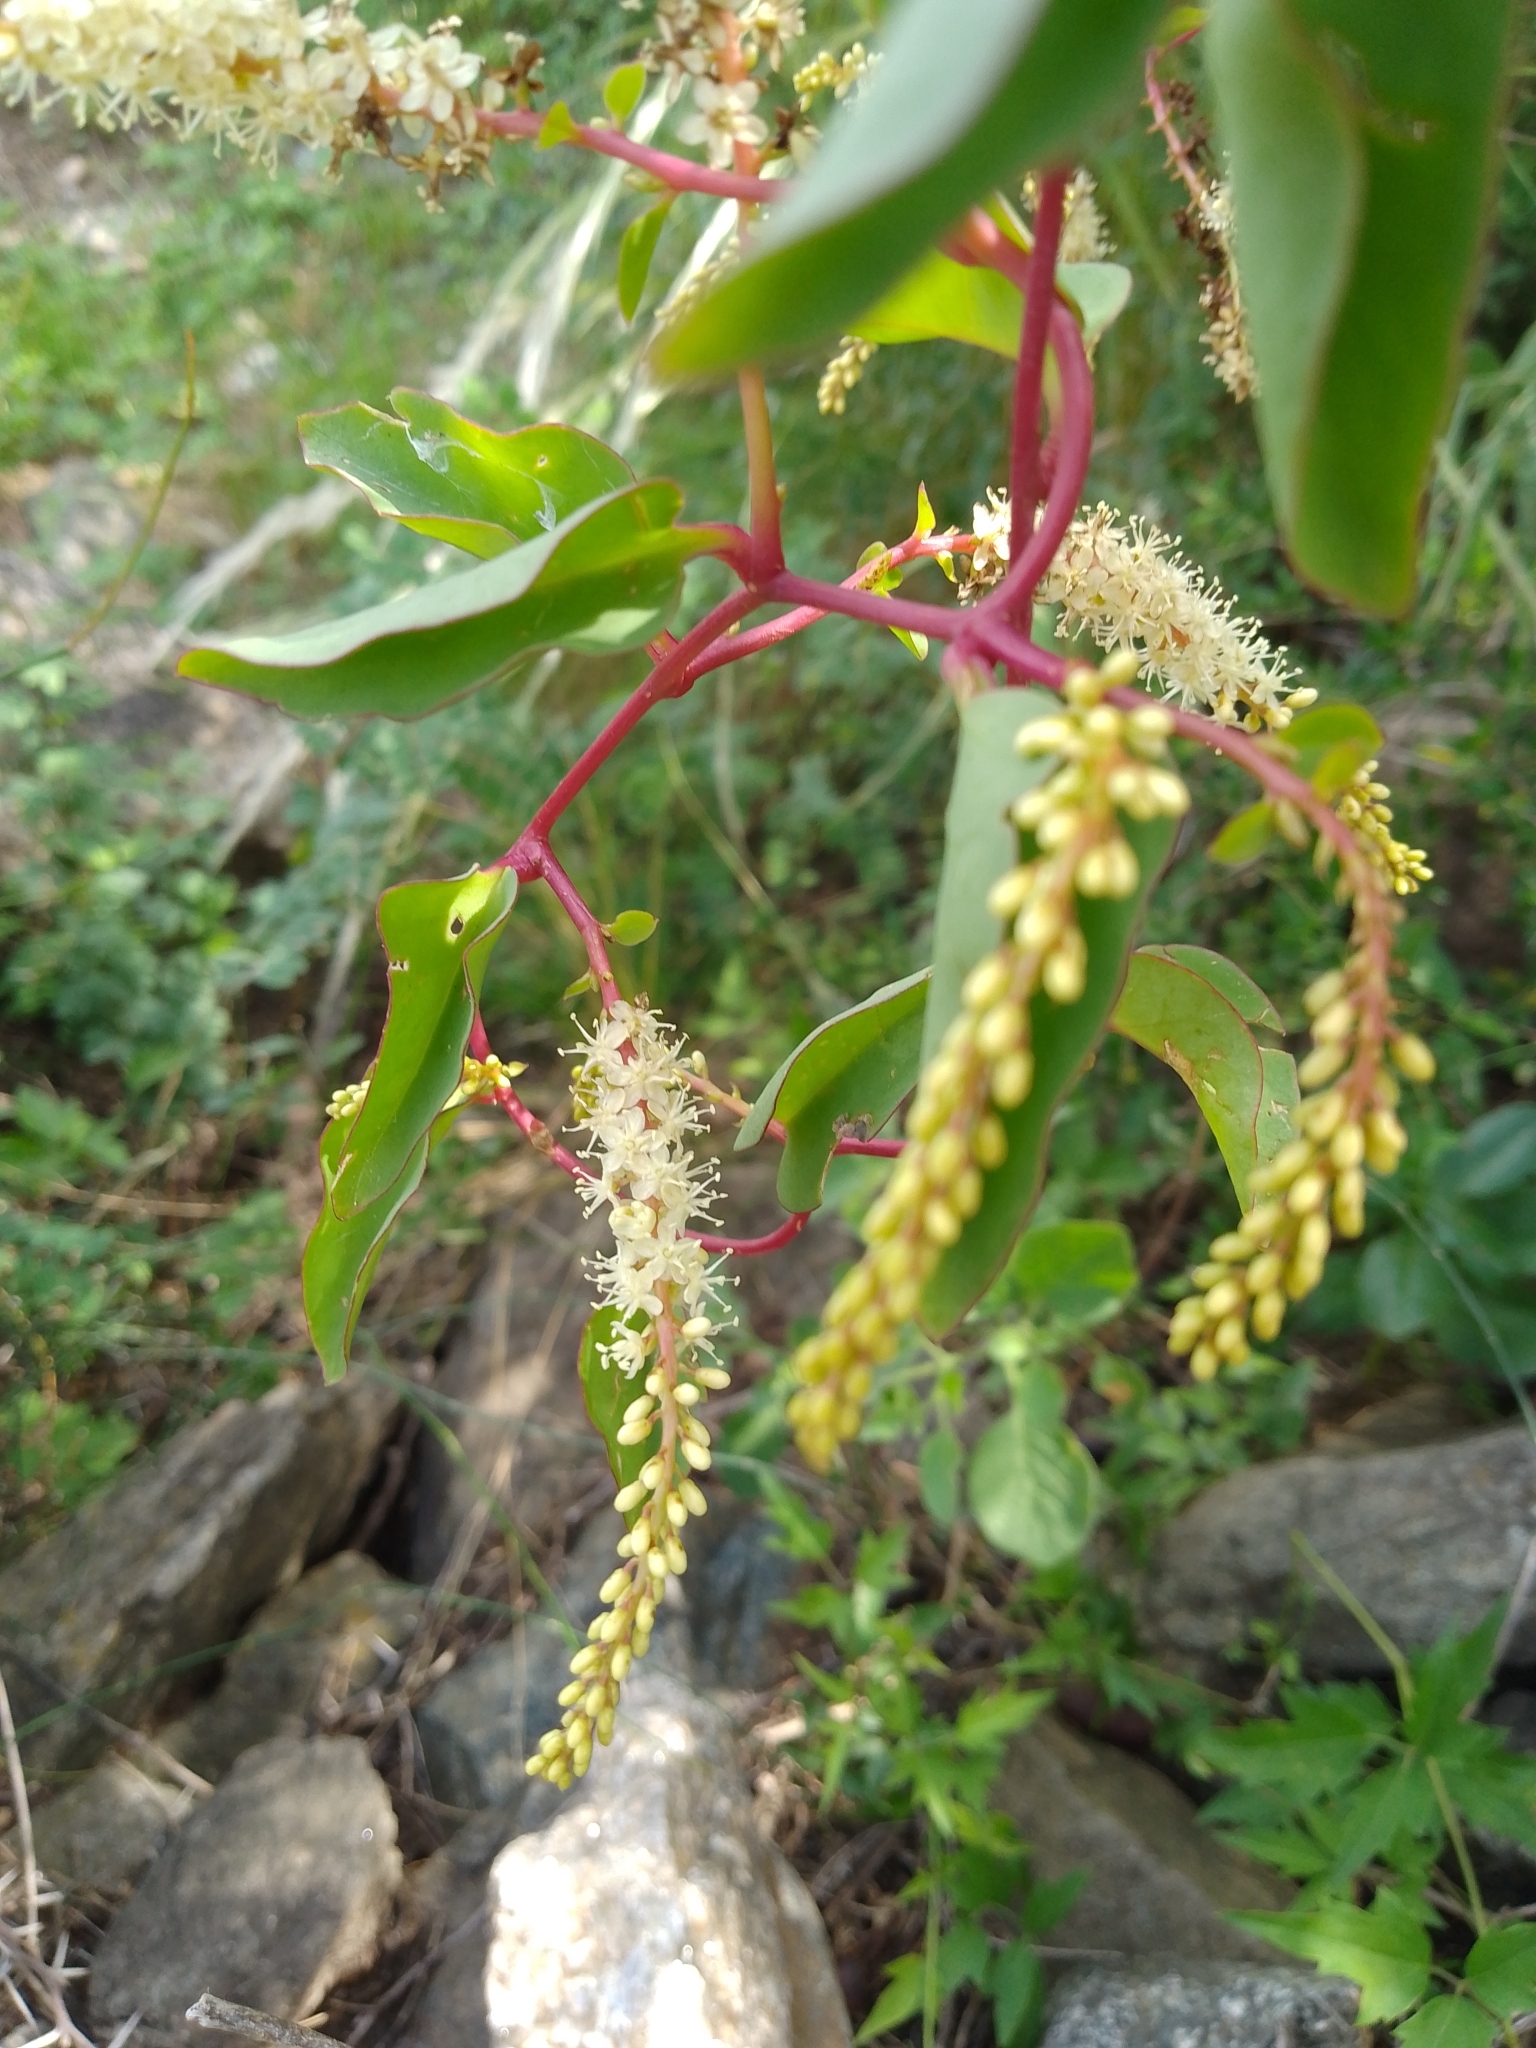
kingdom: Plantae
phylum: Tracheophyta
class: Magnoliopsida
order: Caryophyllales
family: Basellaceae
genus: Anredera
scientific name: Anredera cordifolia
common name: Heartleaf madeiravine
